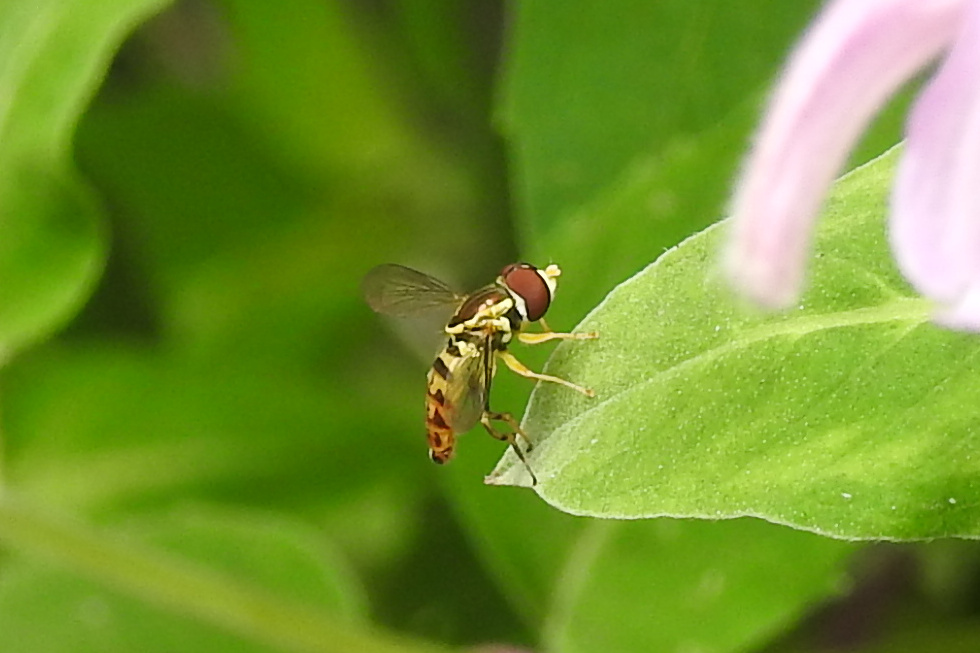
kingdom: Animalia
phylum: Arthropoda
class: Insecta
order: Diptera
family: Syrphidae
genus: Toxomerus
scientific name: Toxomerus geminatus
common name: Eastern calligrapher
